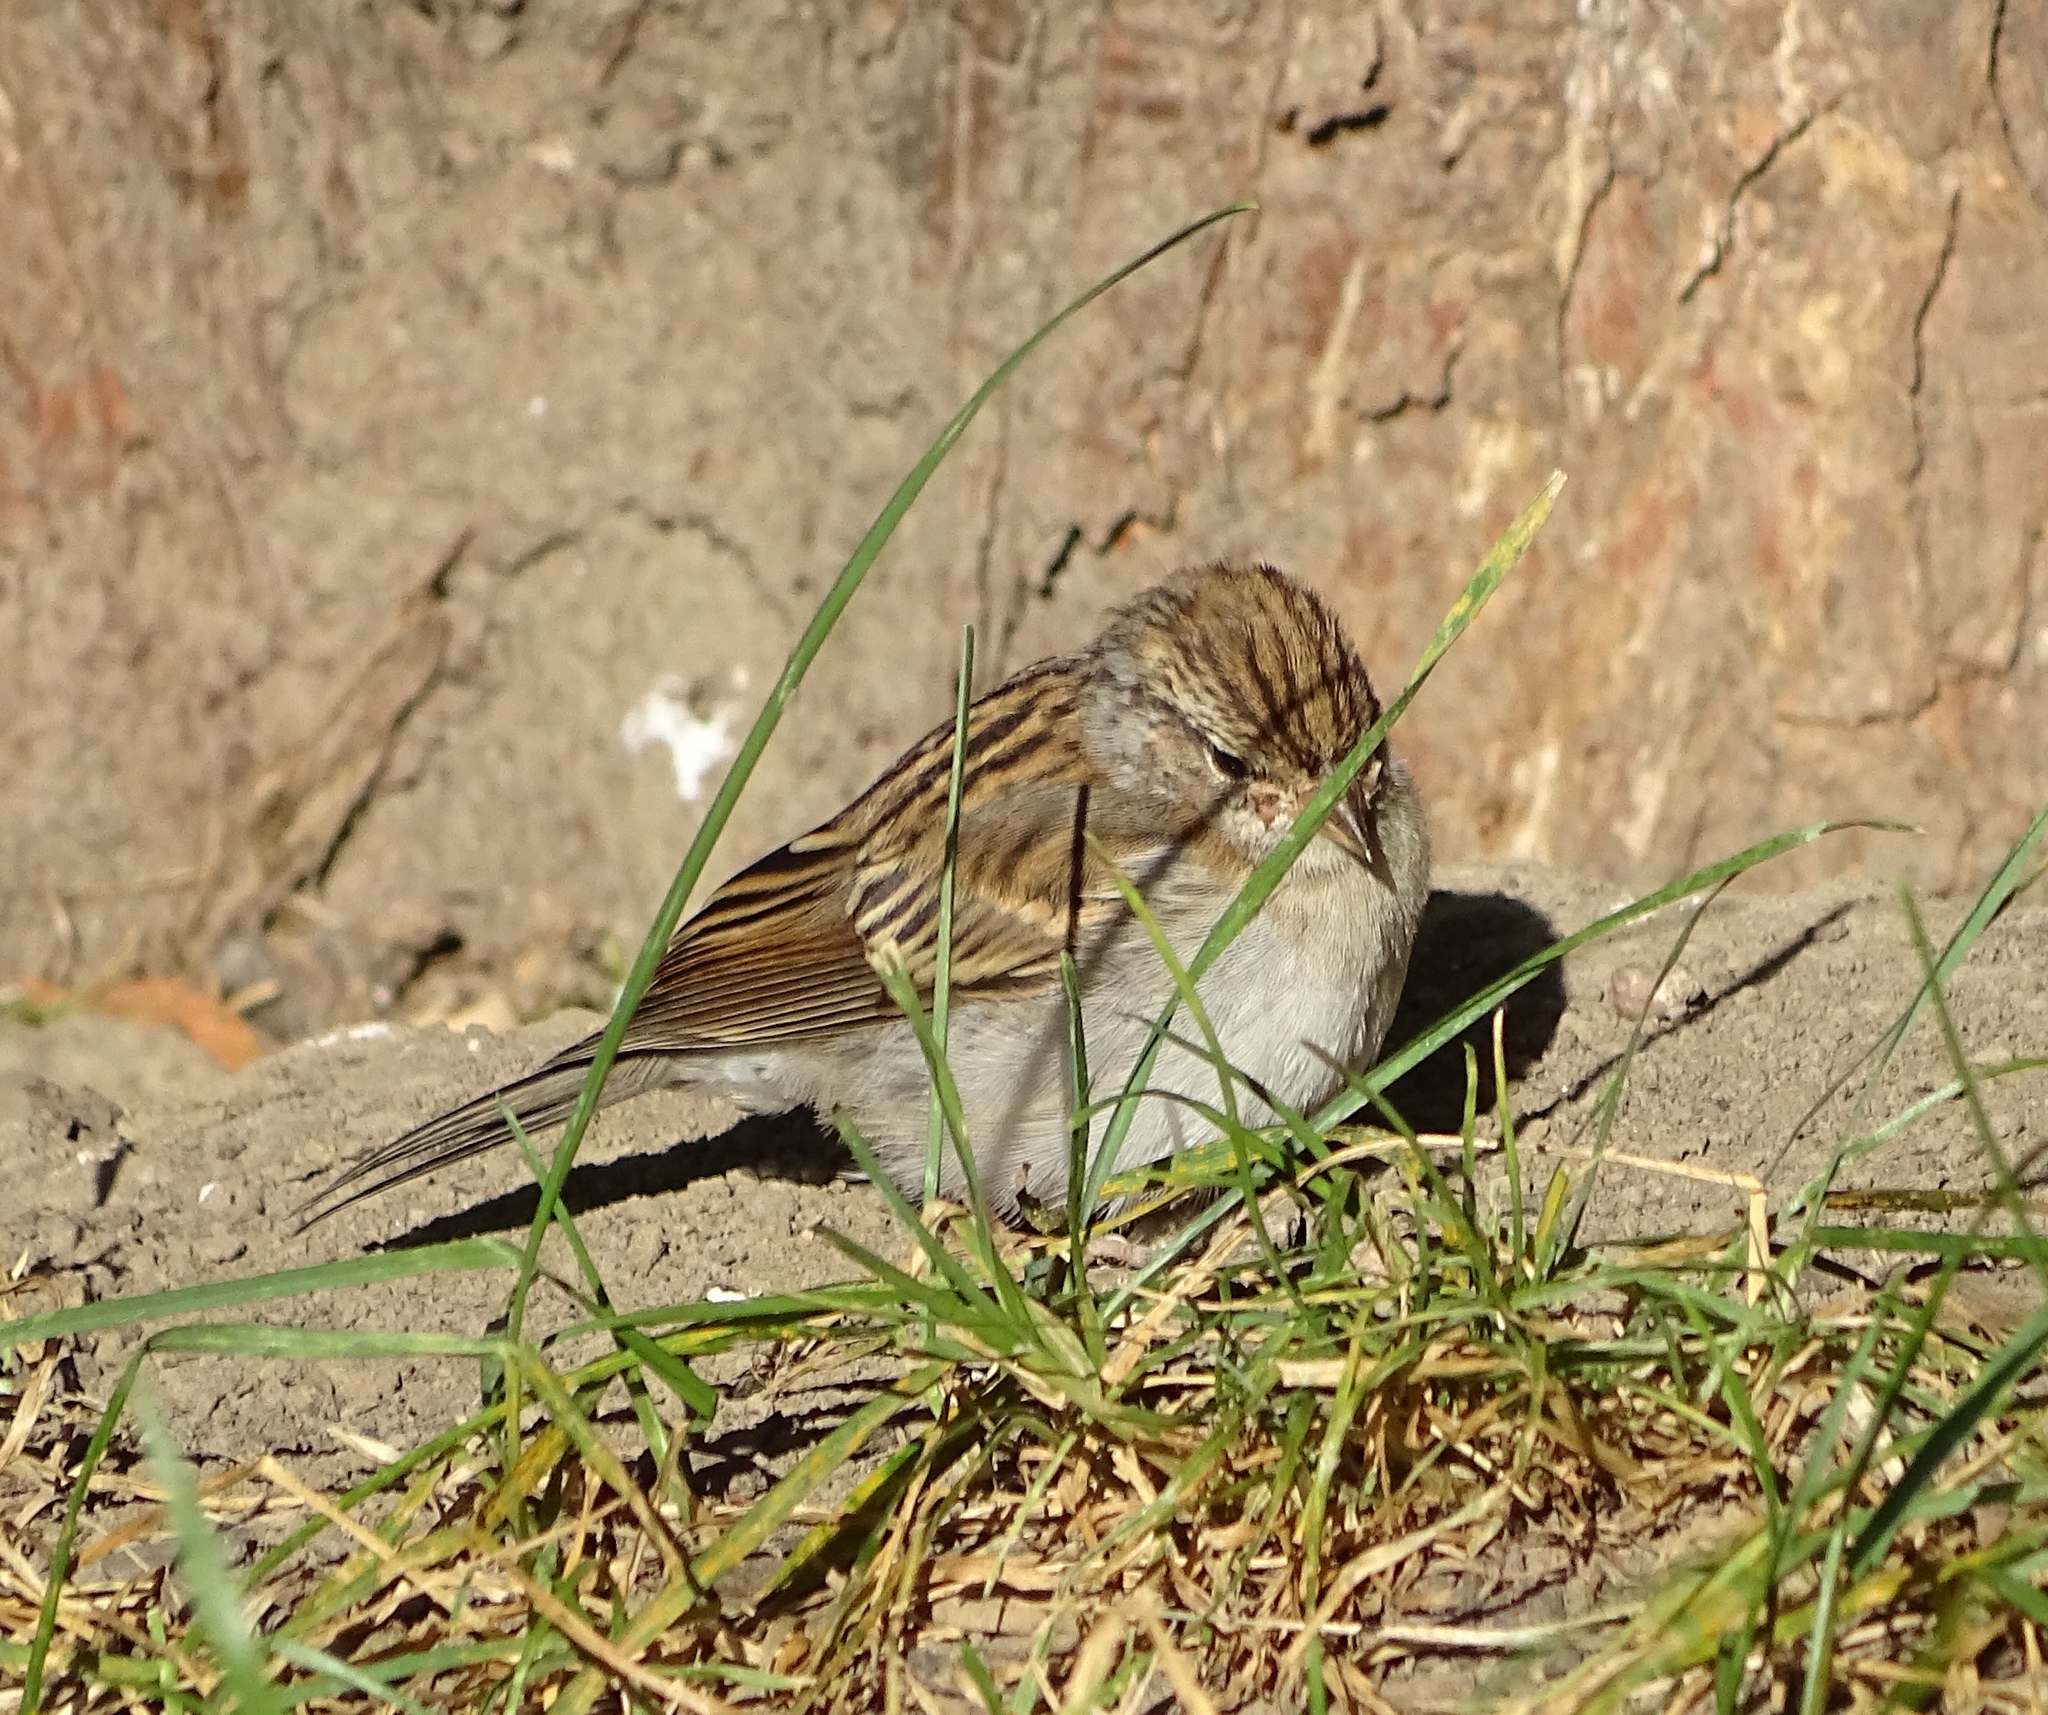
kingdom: Animalia
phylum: Chordata
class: Aves
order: Passeriformes
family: Passerellidae
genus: Spizella
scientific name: Spizella passerina
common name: Chipping sparrow
